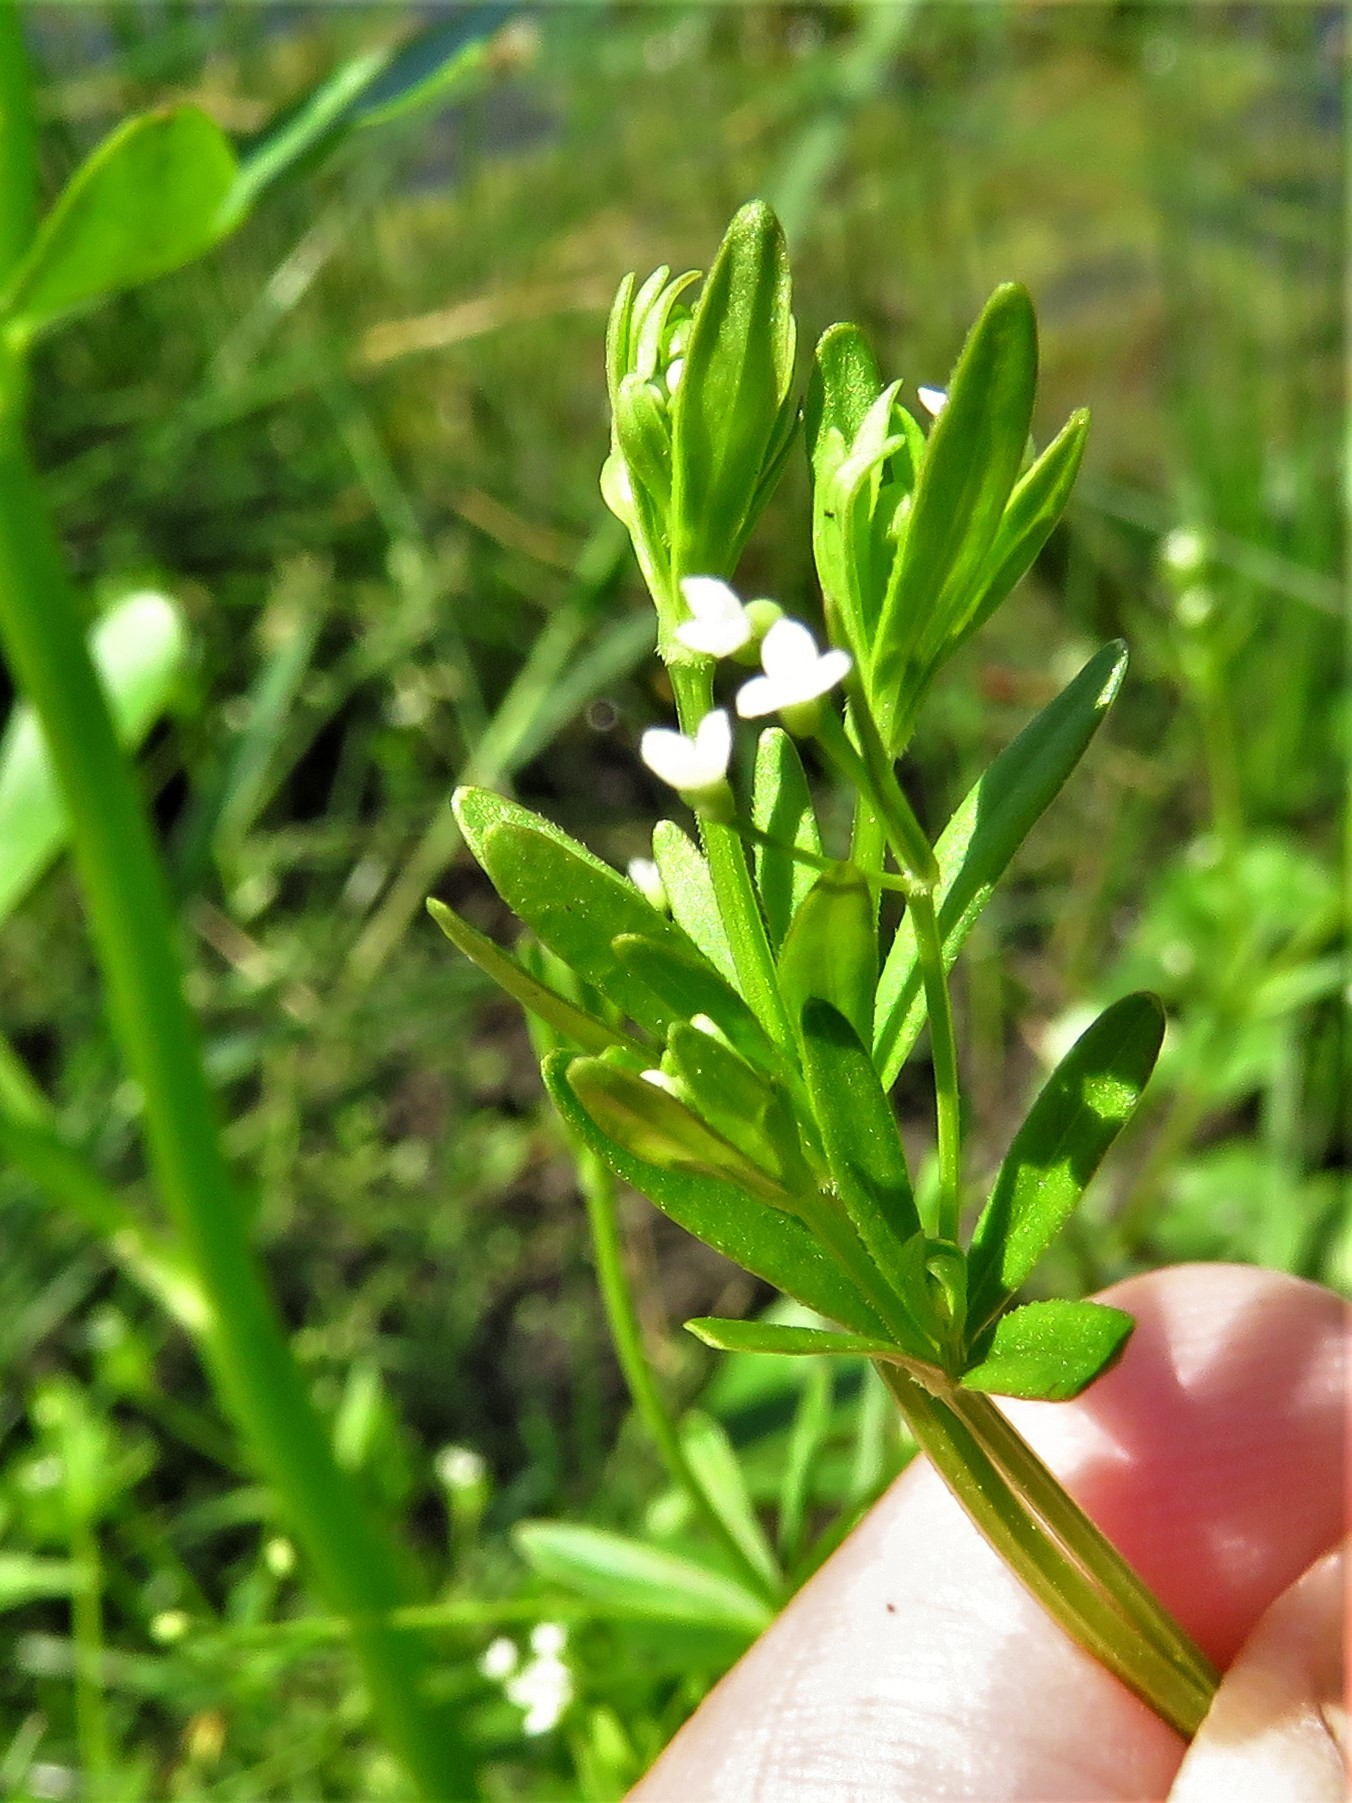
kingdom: Plantae
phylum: Tracheophyta
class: Magnoliopsida
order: Gentianales
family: Rubiaceae
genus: Galium
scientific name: Galium tinctorium
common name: Bedstraw
